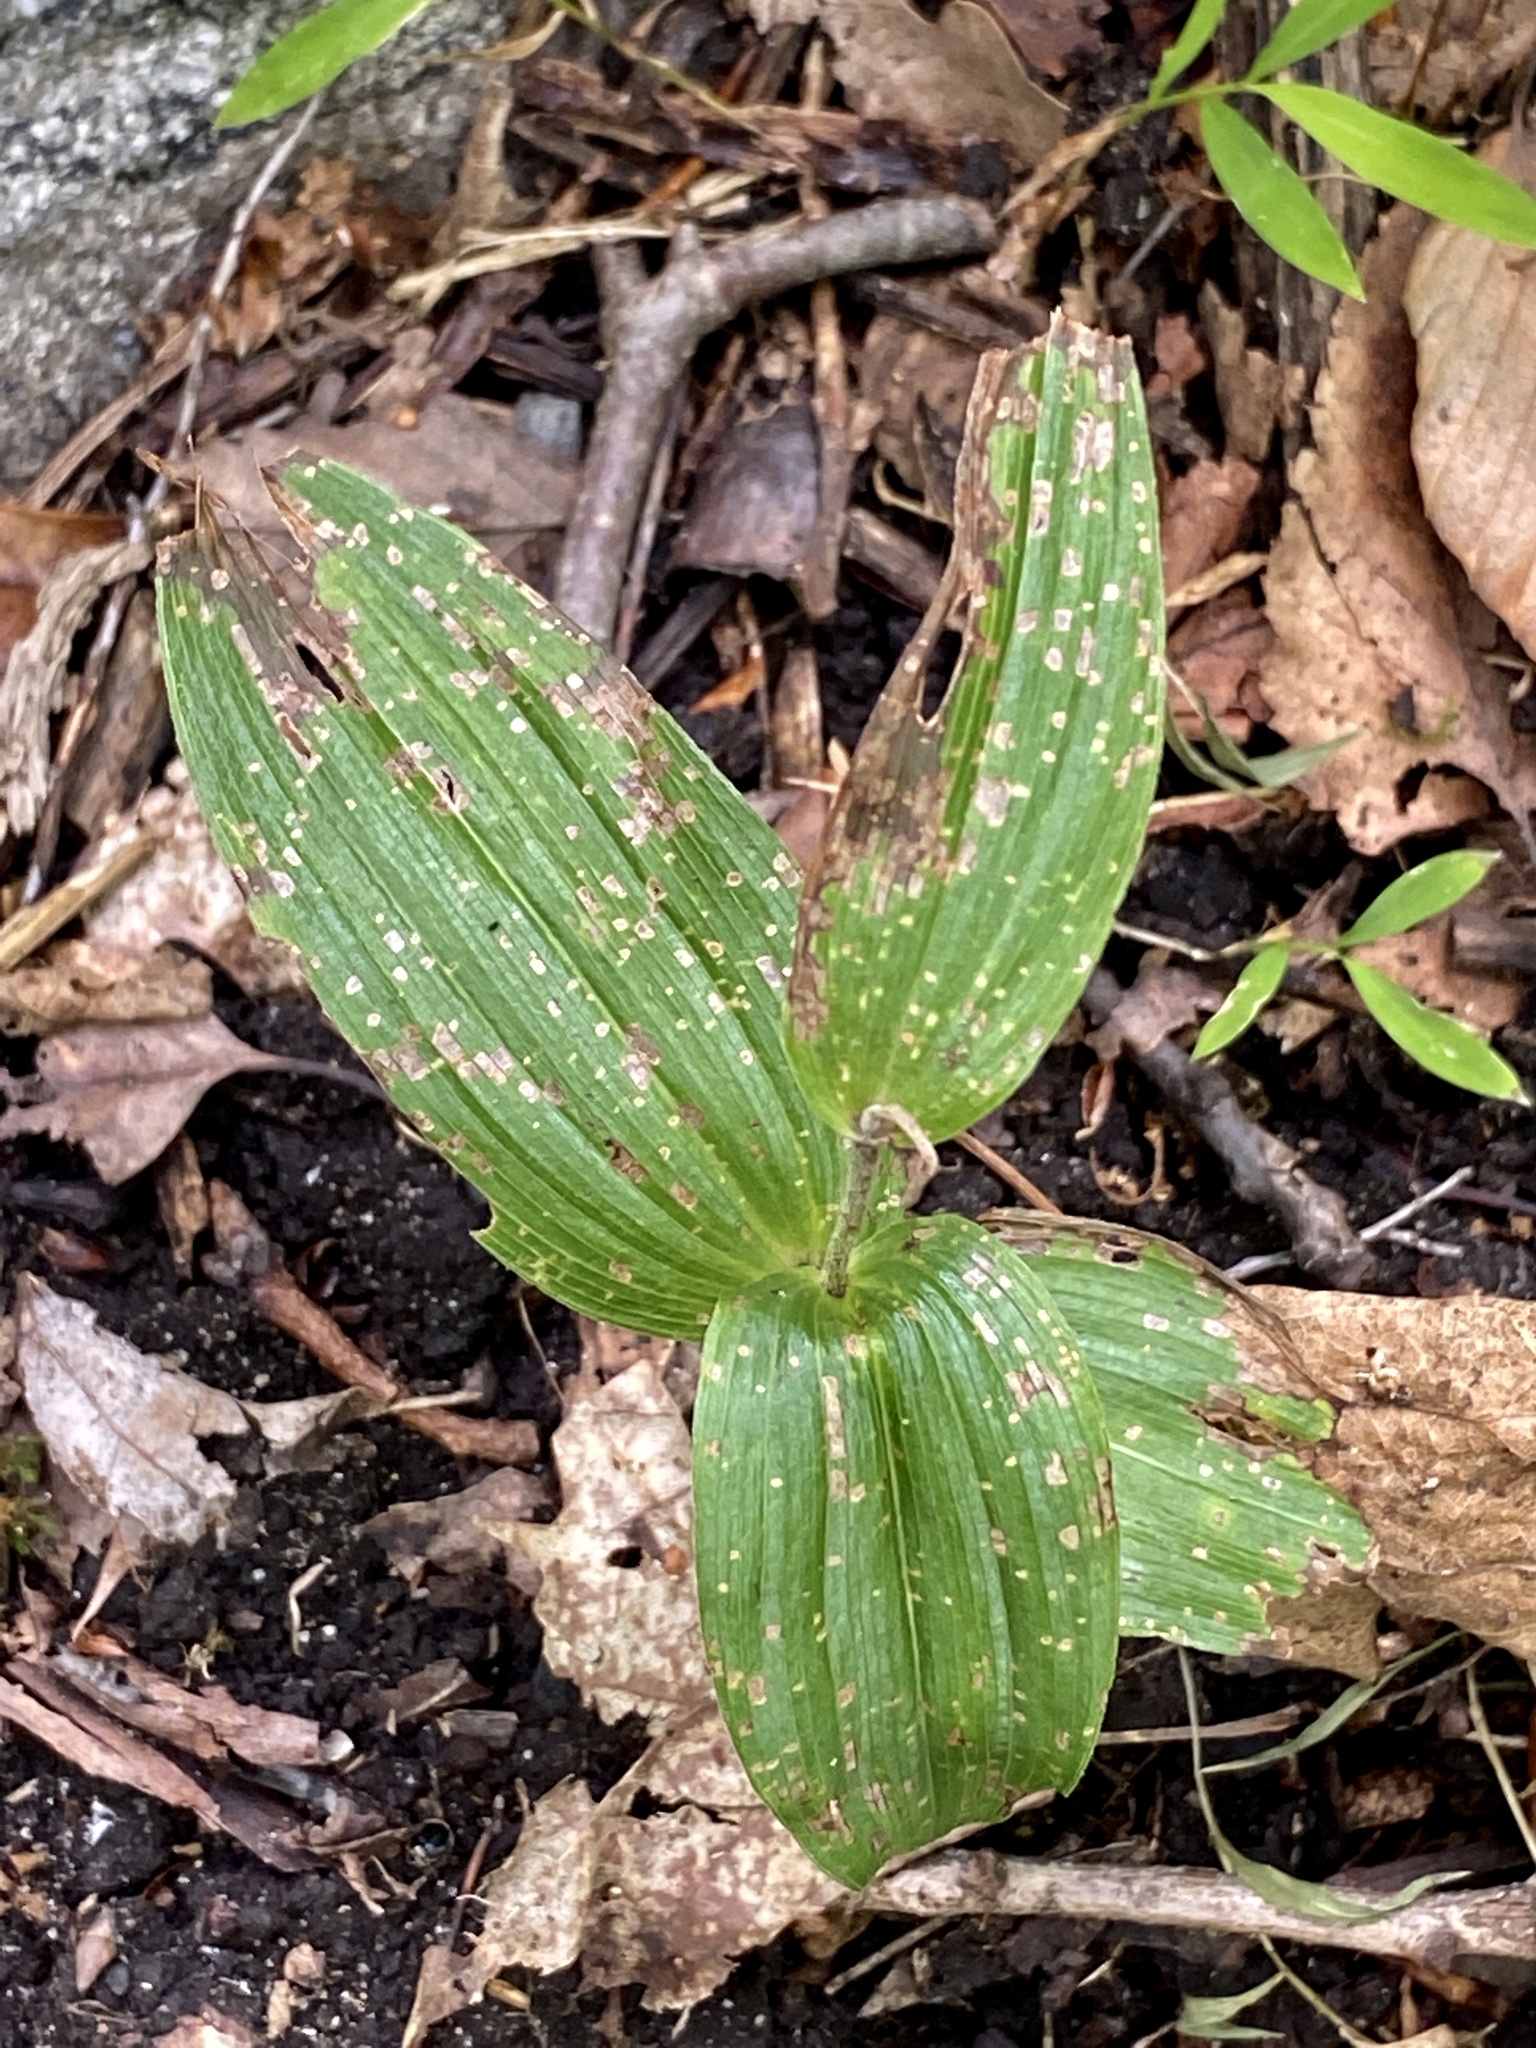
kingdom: Plantae
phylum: Tracheophyta
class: Liliopsida
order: Asparagales
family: Orchidaceae
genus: Epipactis
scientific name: Epipactis helleborine
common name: Broad-leaved helleborine
